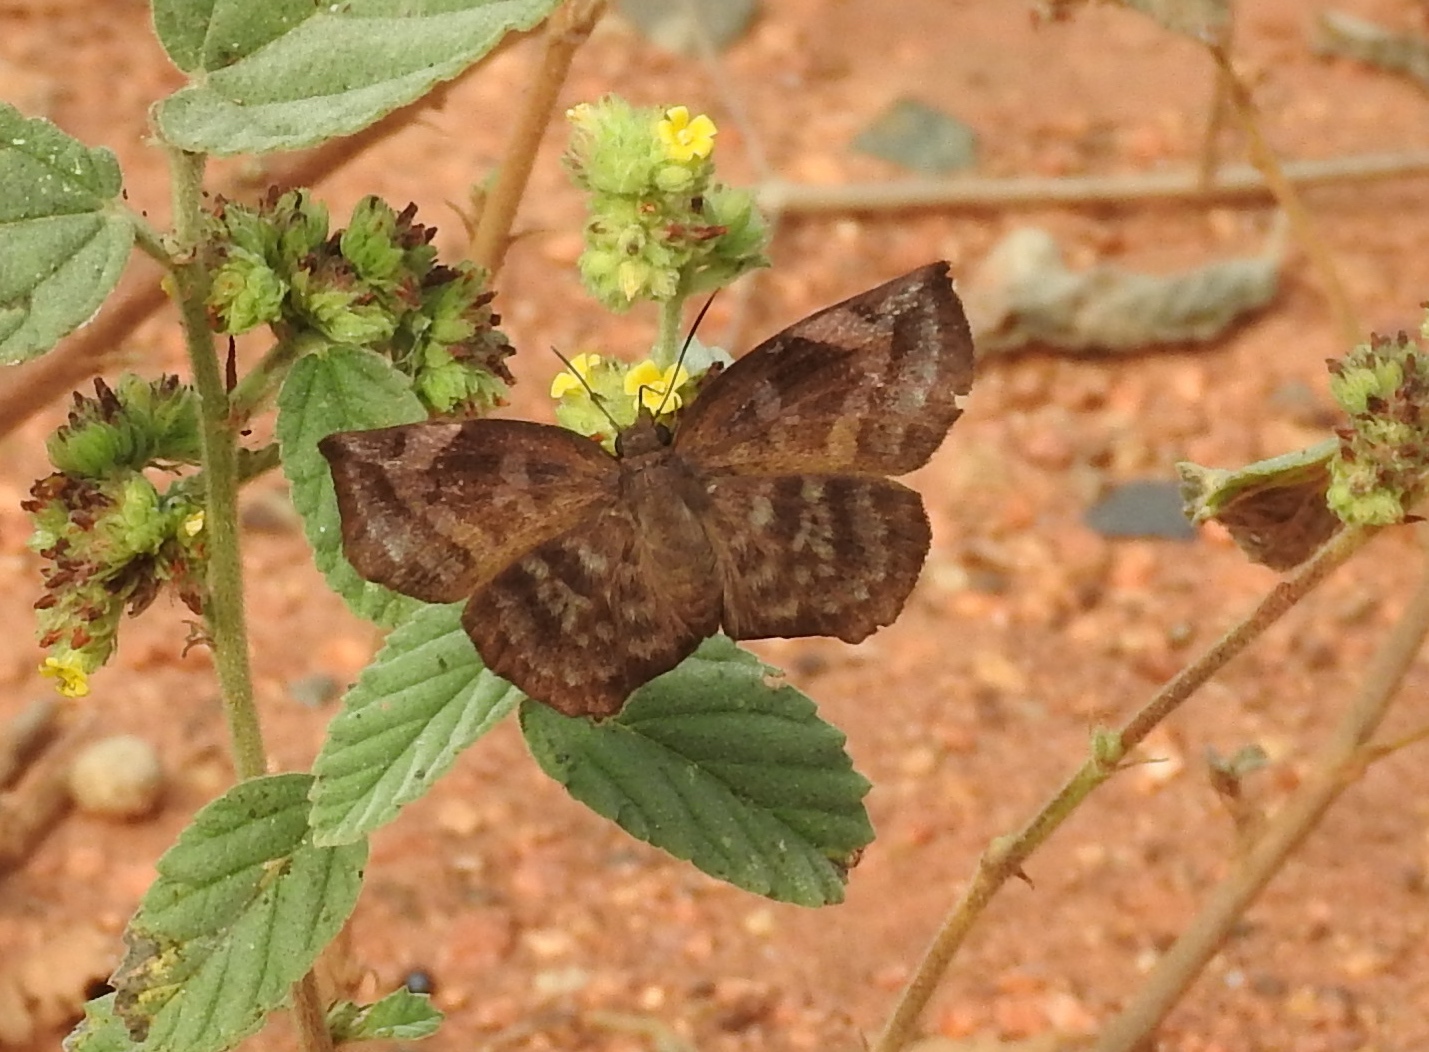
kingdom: Animalia
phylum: Arthropoda
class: Insecta
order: Lepidoptera
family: Hesperiidae
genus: Achlyodes
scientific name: Achlyodes thraso
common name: Sickle-winged skipper
